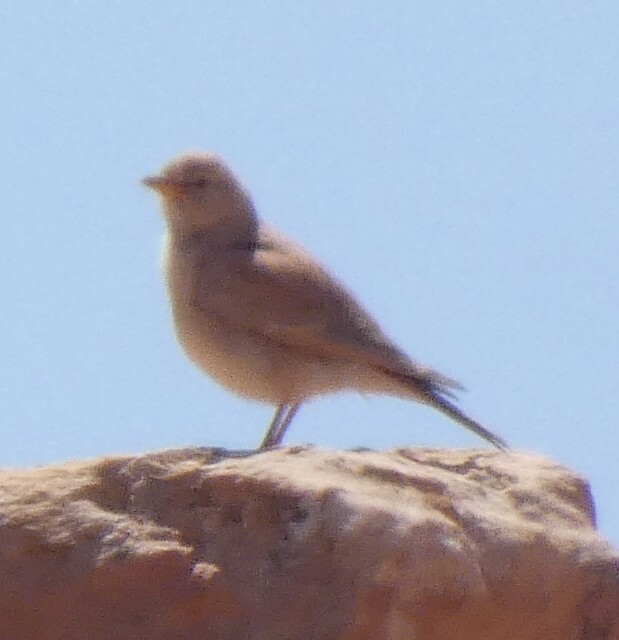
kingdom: Animalia
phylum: Chordata
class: Aves
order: Passeriformes
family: Alaudidae
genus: Ammomanes
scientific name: Ammomanes deserti
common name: Desert lark
